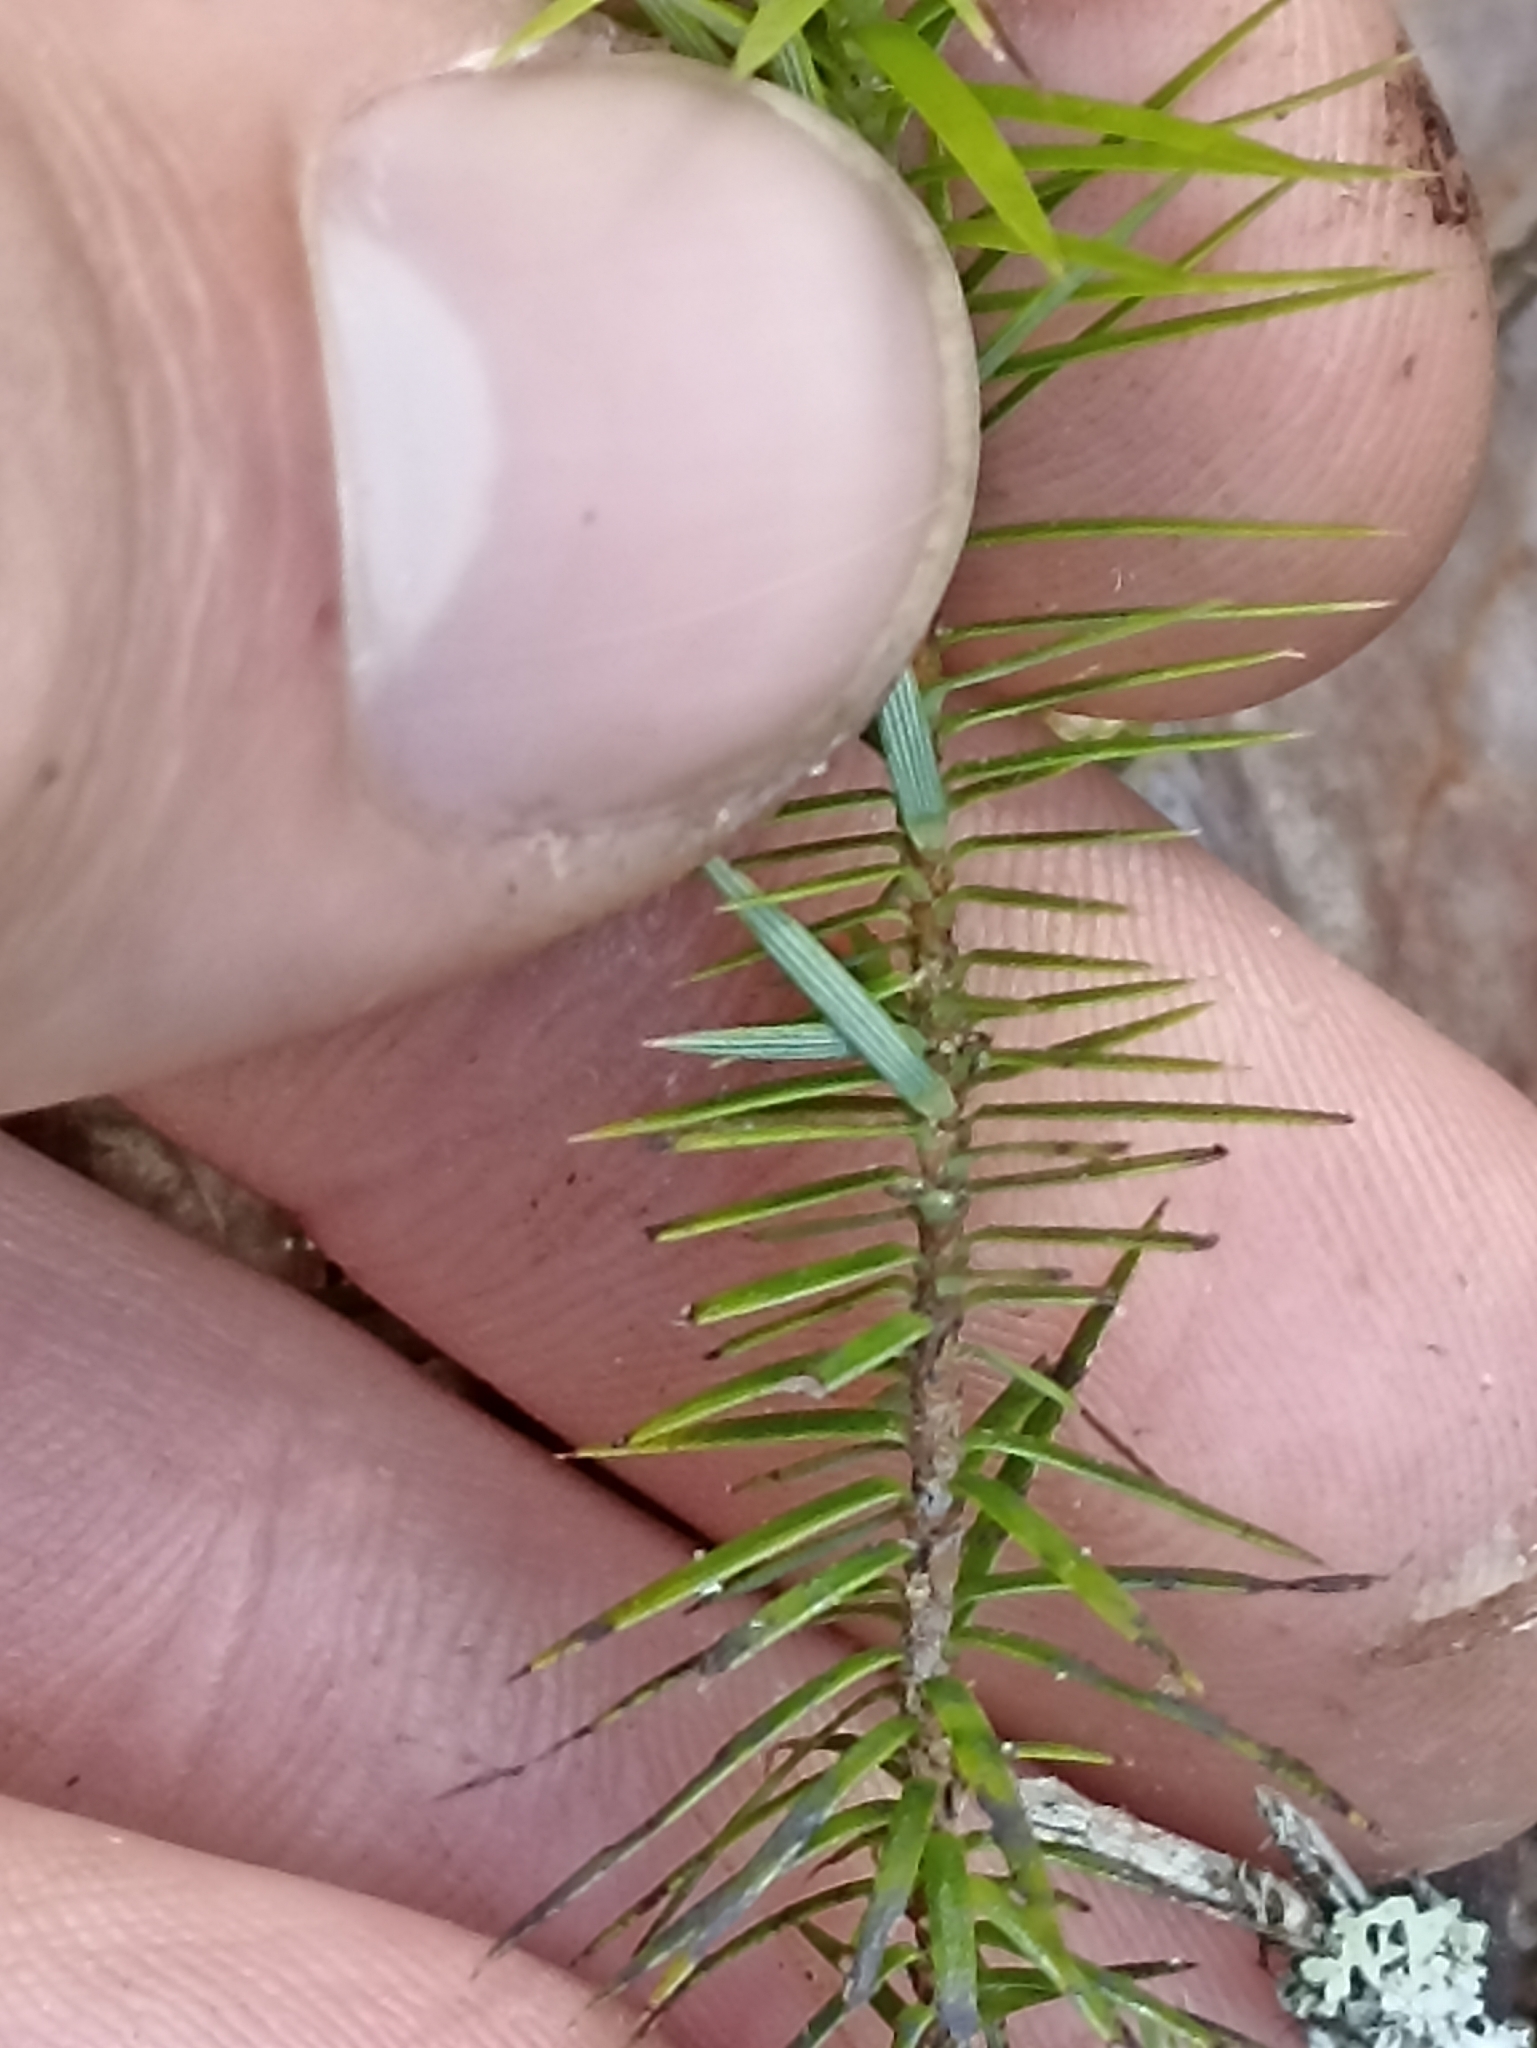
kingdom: Plantae
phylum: Tracheophyta
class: Magnoliopsida
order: Ericales
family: Ericaceae
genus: Leptecophylla
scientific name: Leptecophylla juniperina
